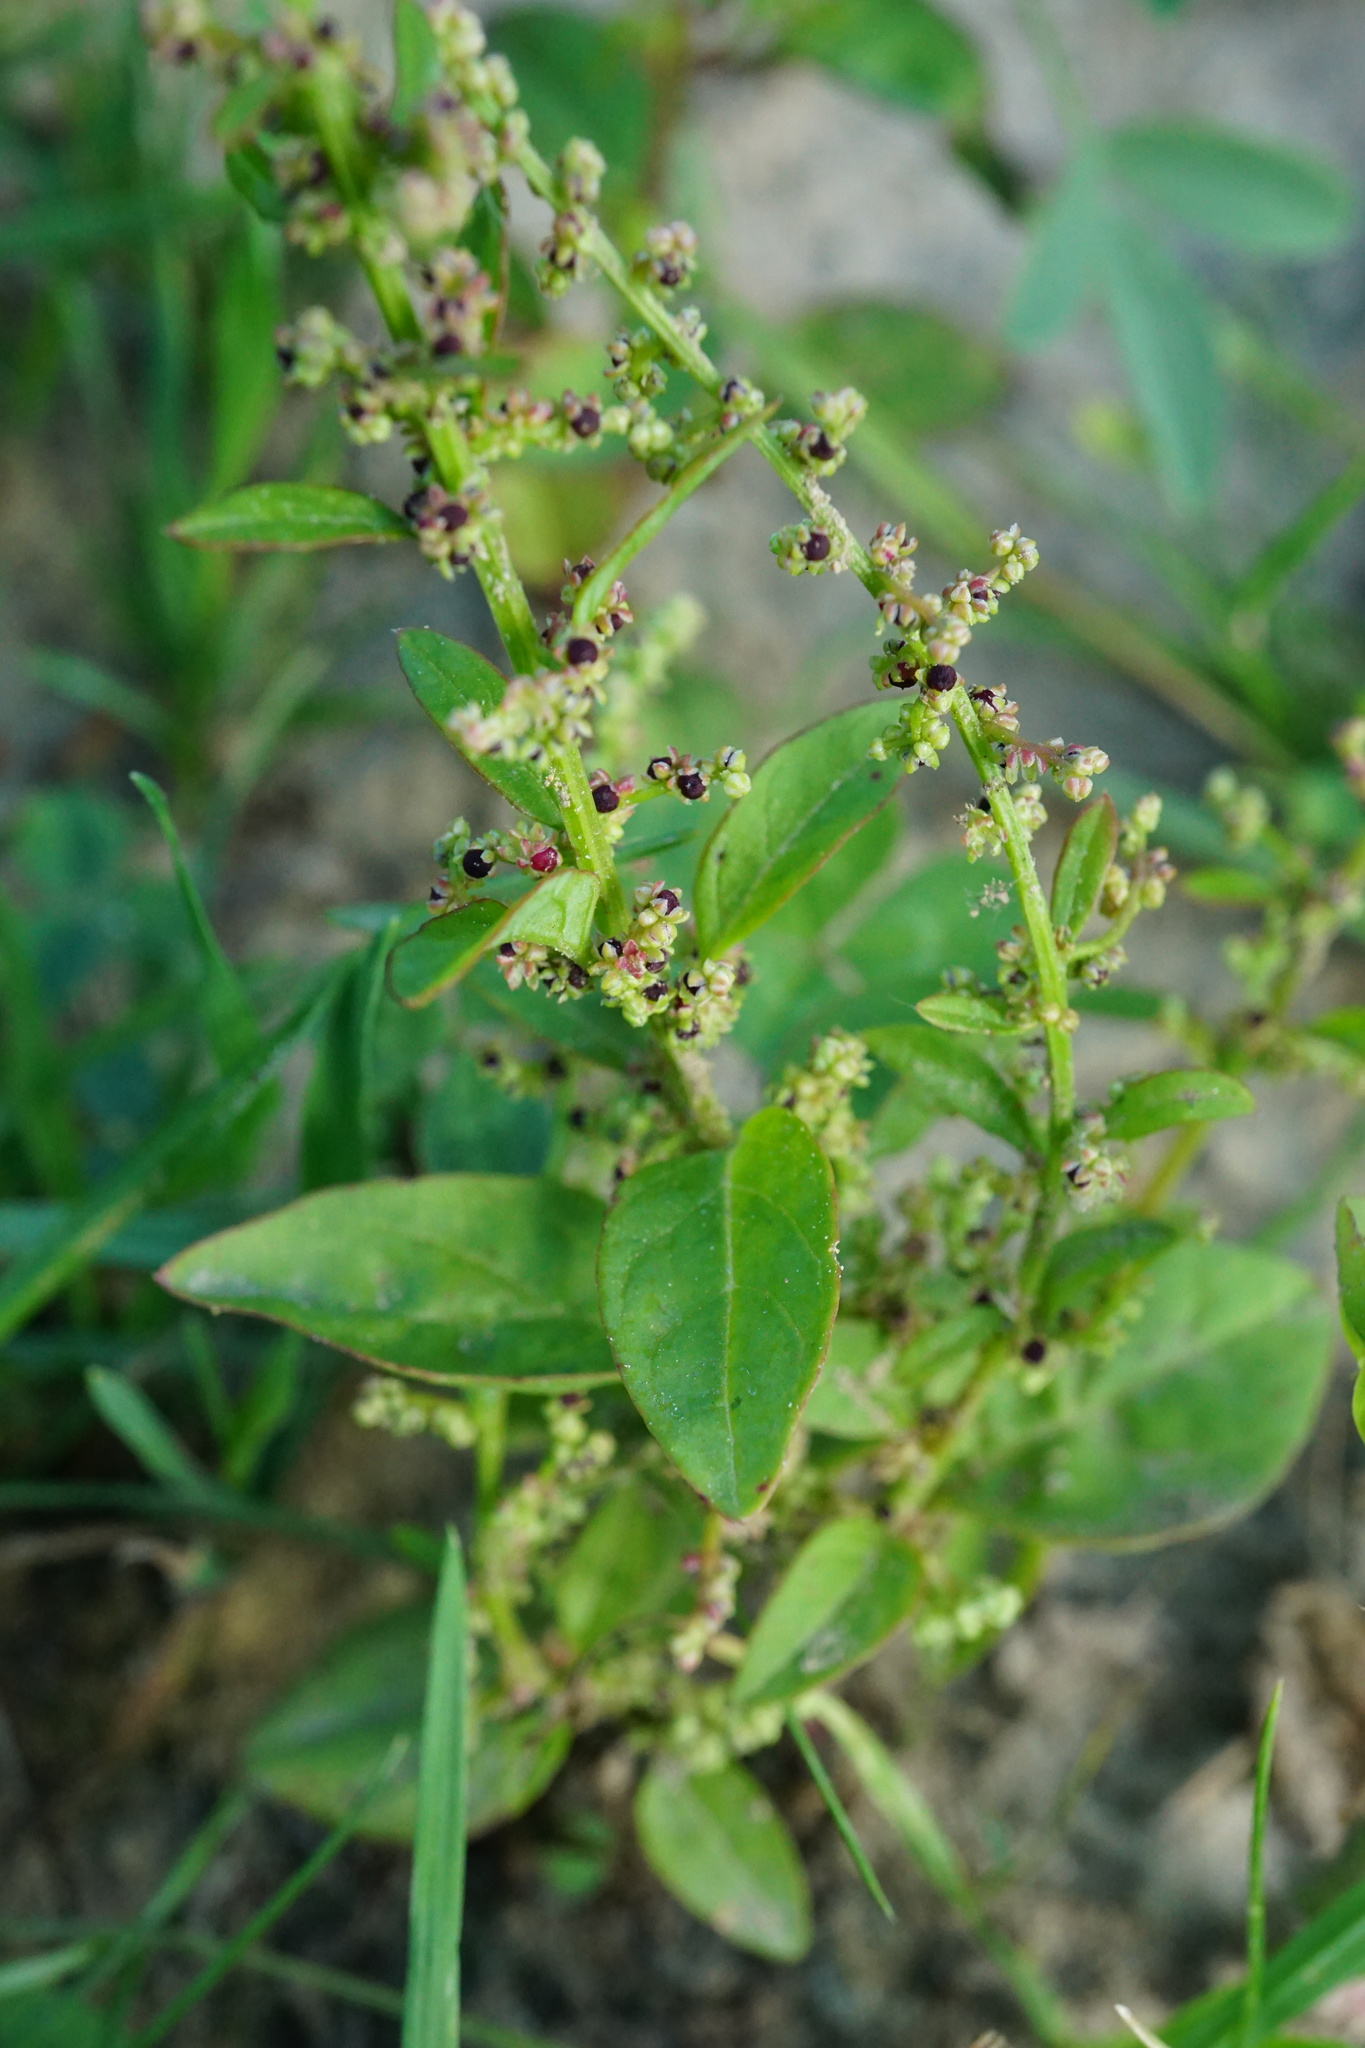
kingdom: Plantae
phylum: Tracheophyta
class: Magnoliopsida
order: Caryophyllales
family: Amaranthaceae
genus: Lipandra
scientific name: Lipandra polysperma
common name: Many-seed goosefoot
